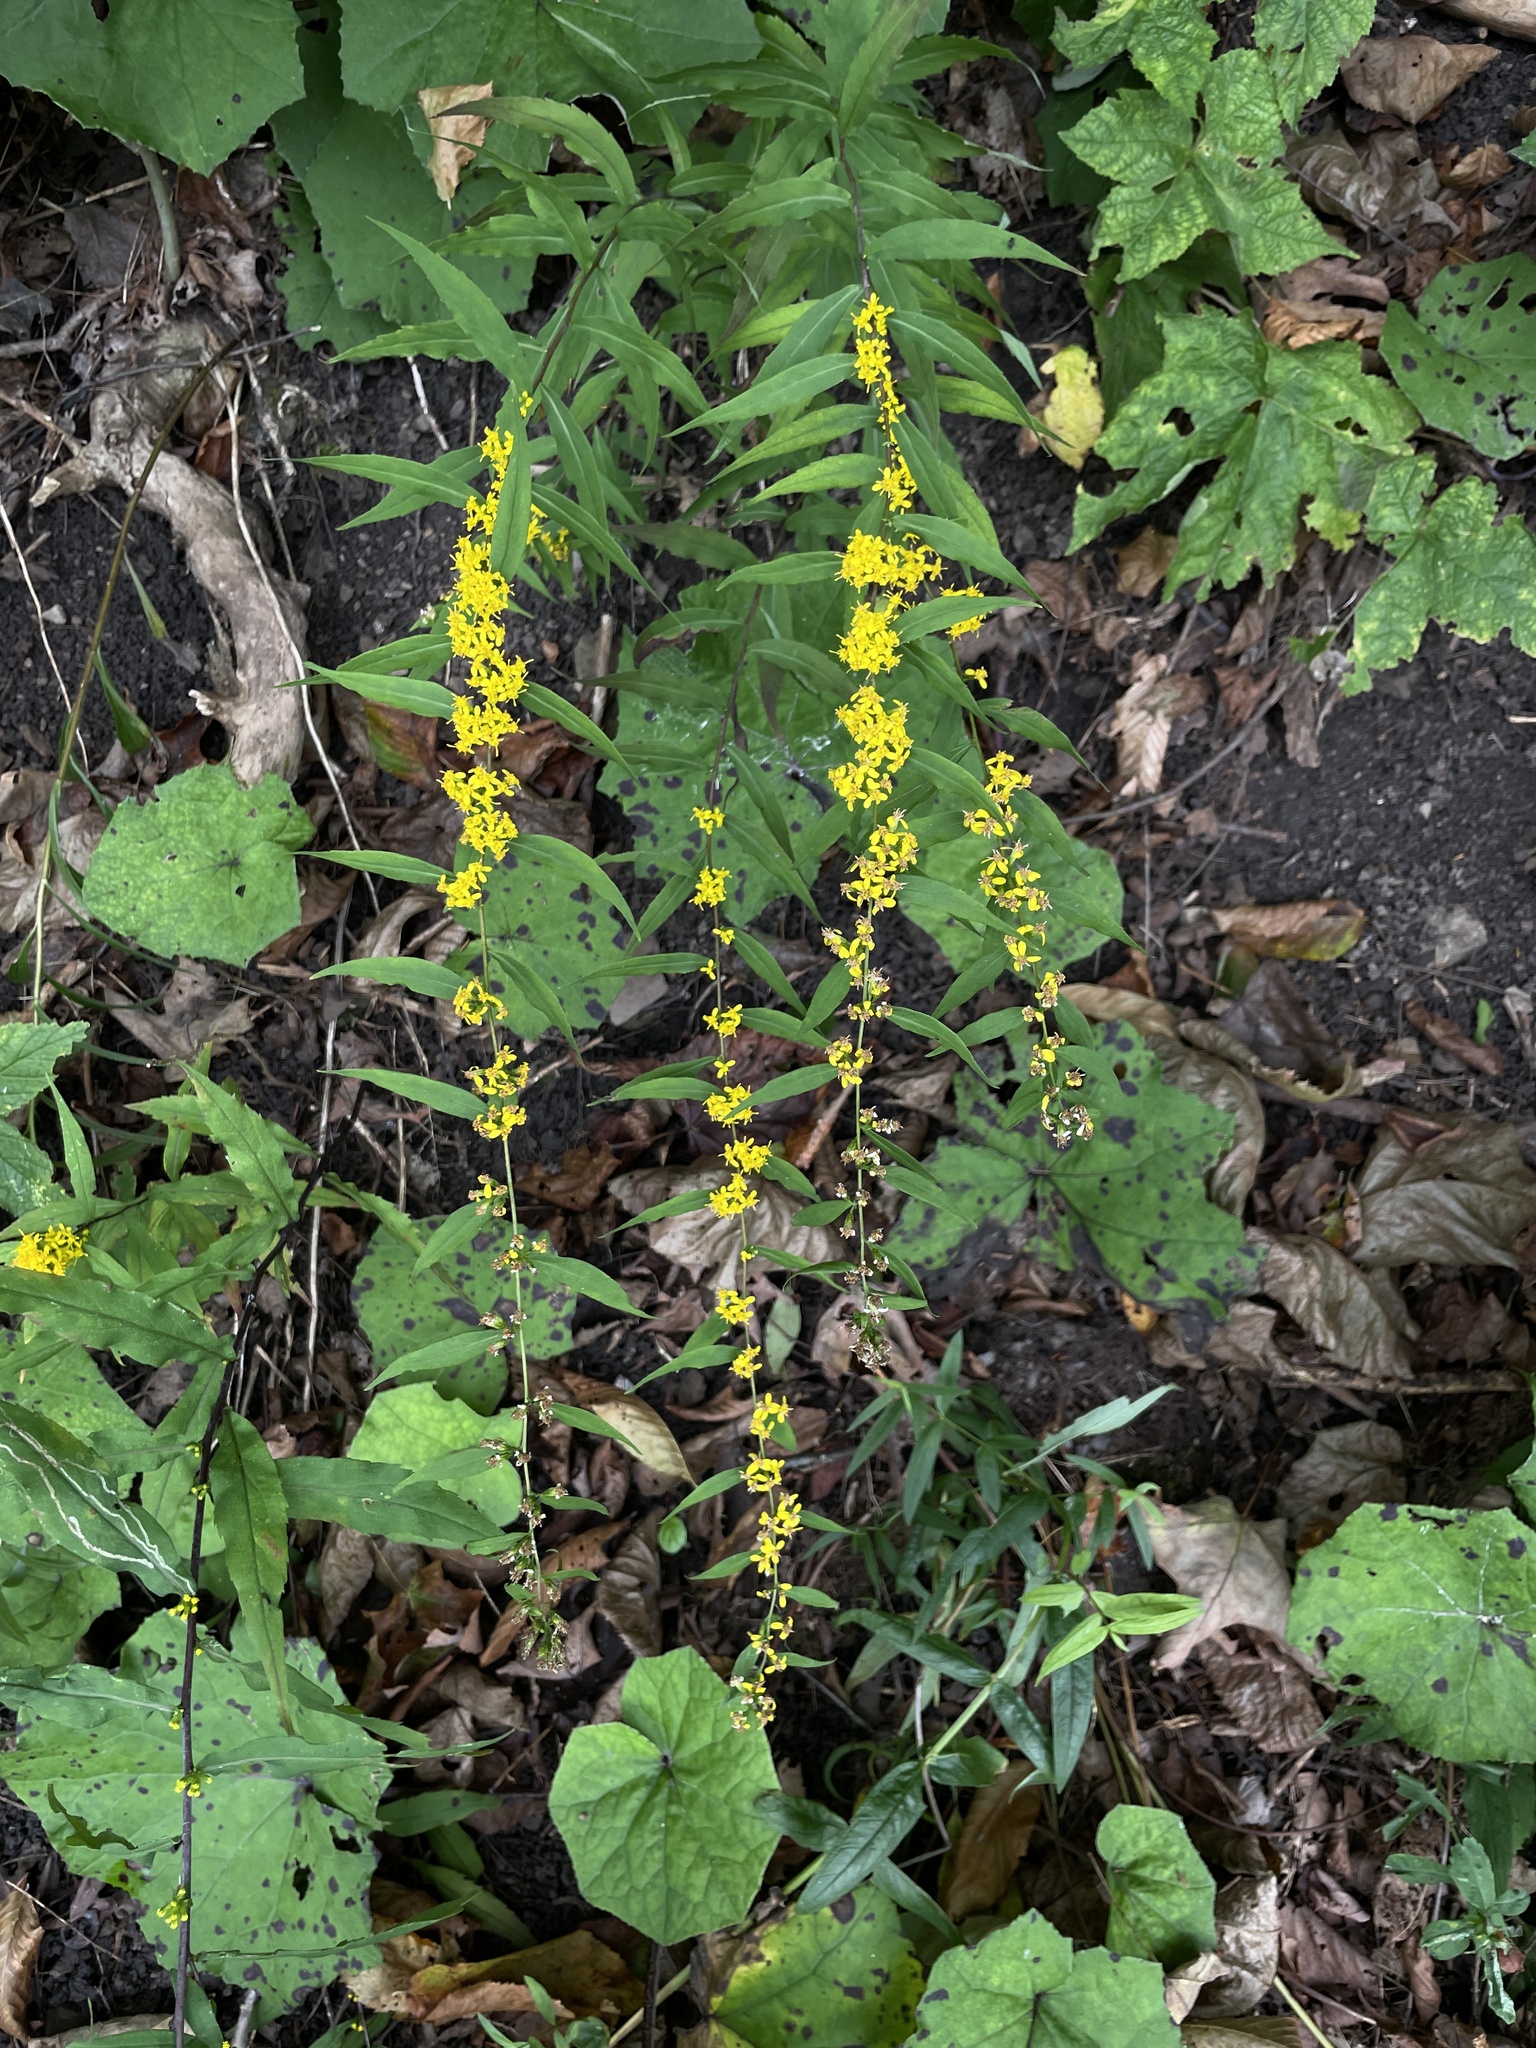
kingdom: Plantae
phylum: Tracheophyta
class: Magnoliopsida
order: Asterales
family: Asteraceae
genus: Solidago
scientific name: Solidago caesia
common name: Woodland goldenrod
